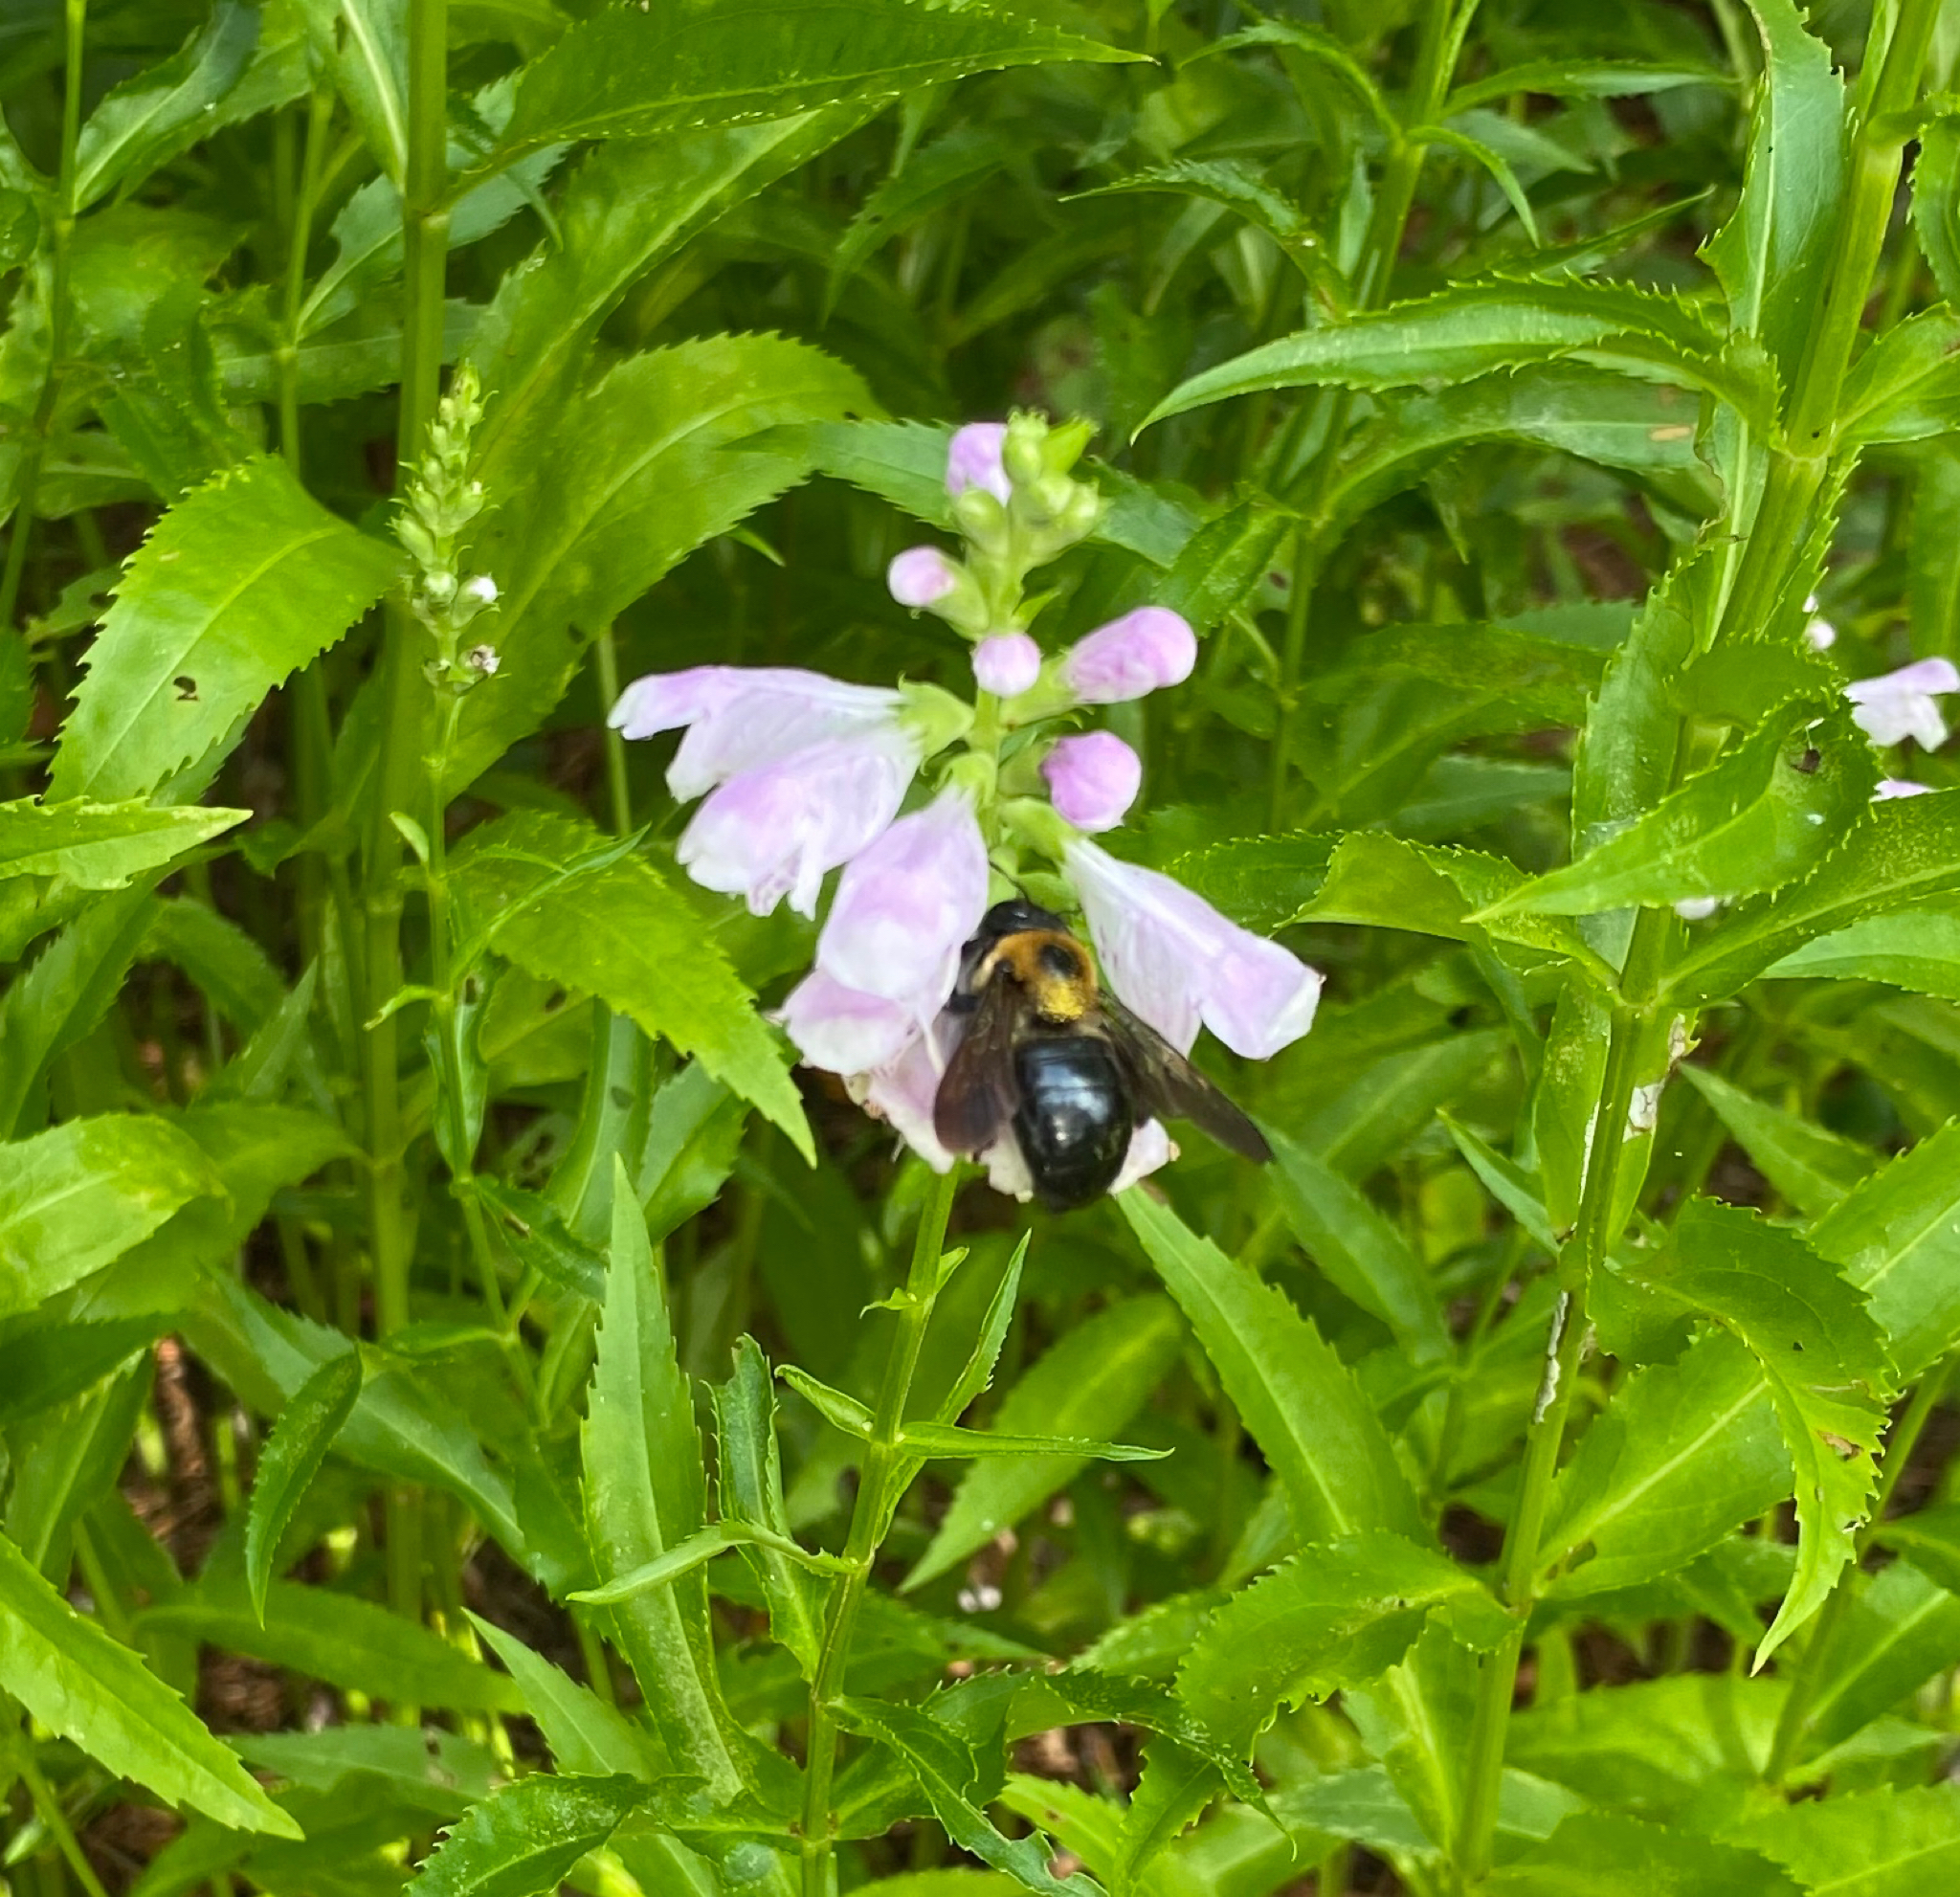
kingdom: Animalia
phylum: Arthropoda
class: Insecta
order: Hymenoptera
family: Apidae
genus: Xylocopa
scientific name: Xylocopa virginica
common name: Carpenter bee
